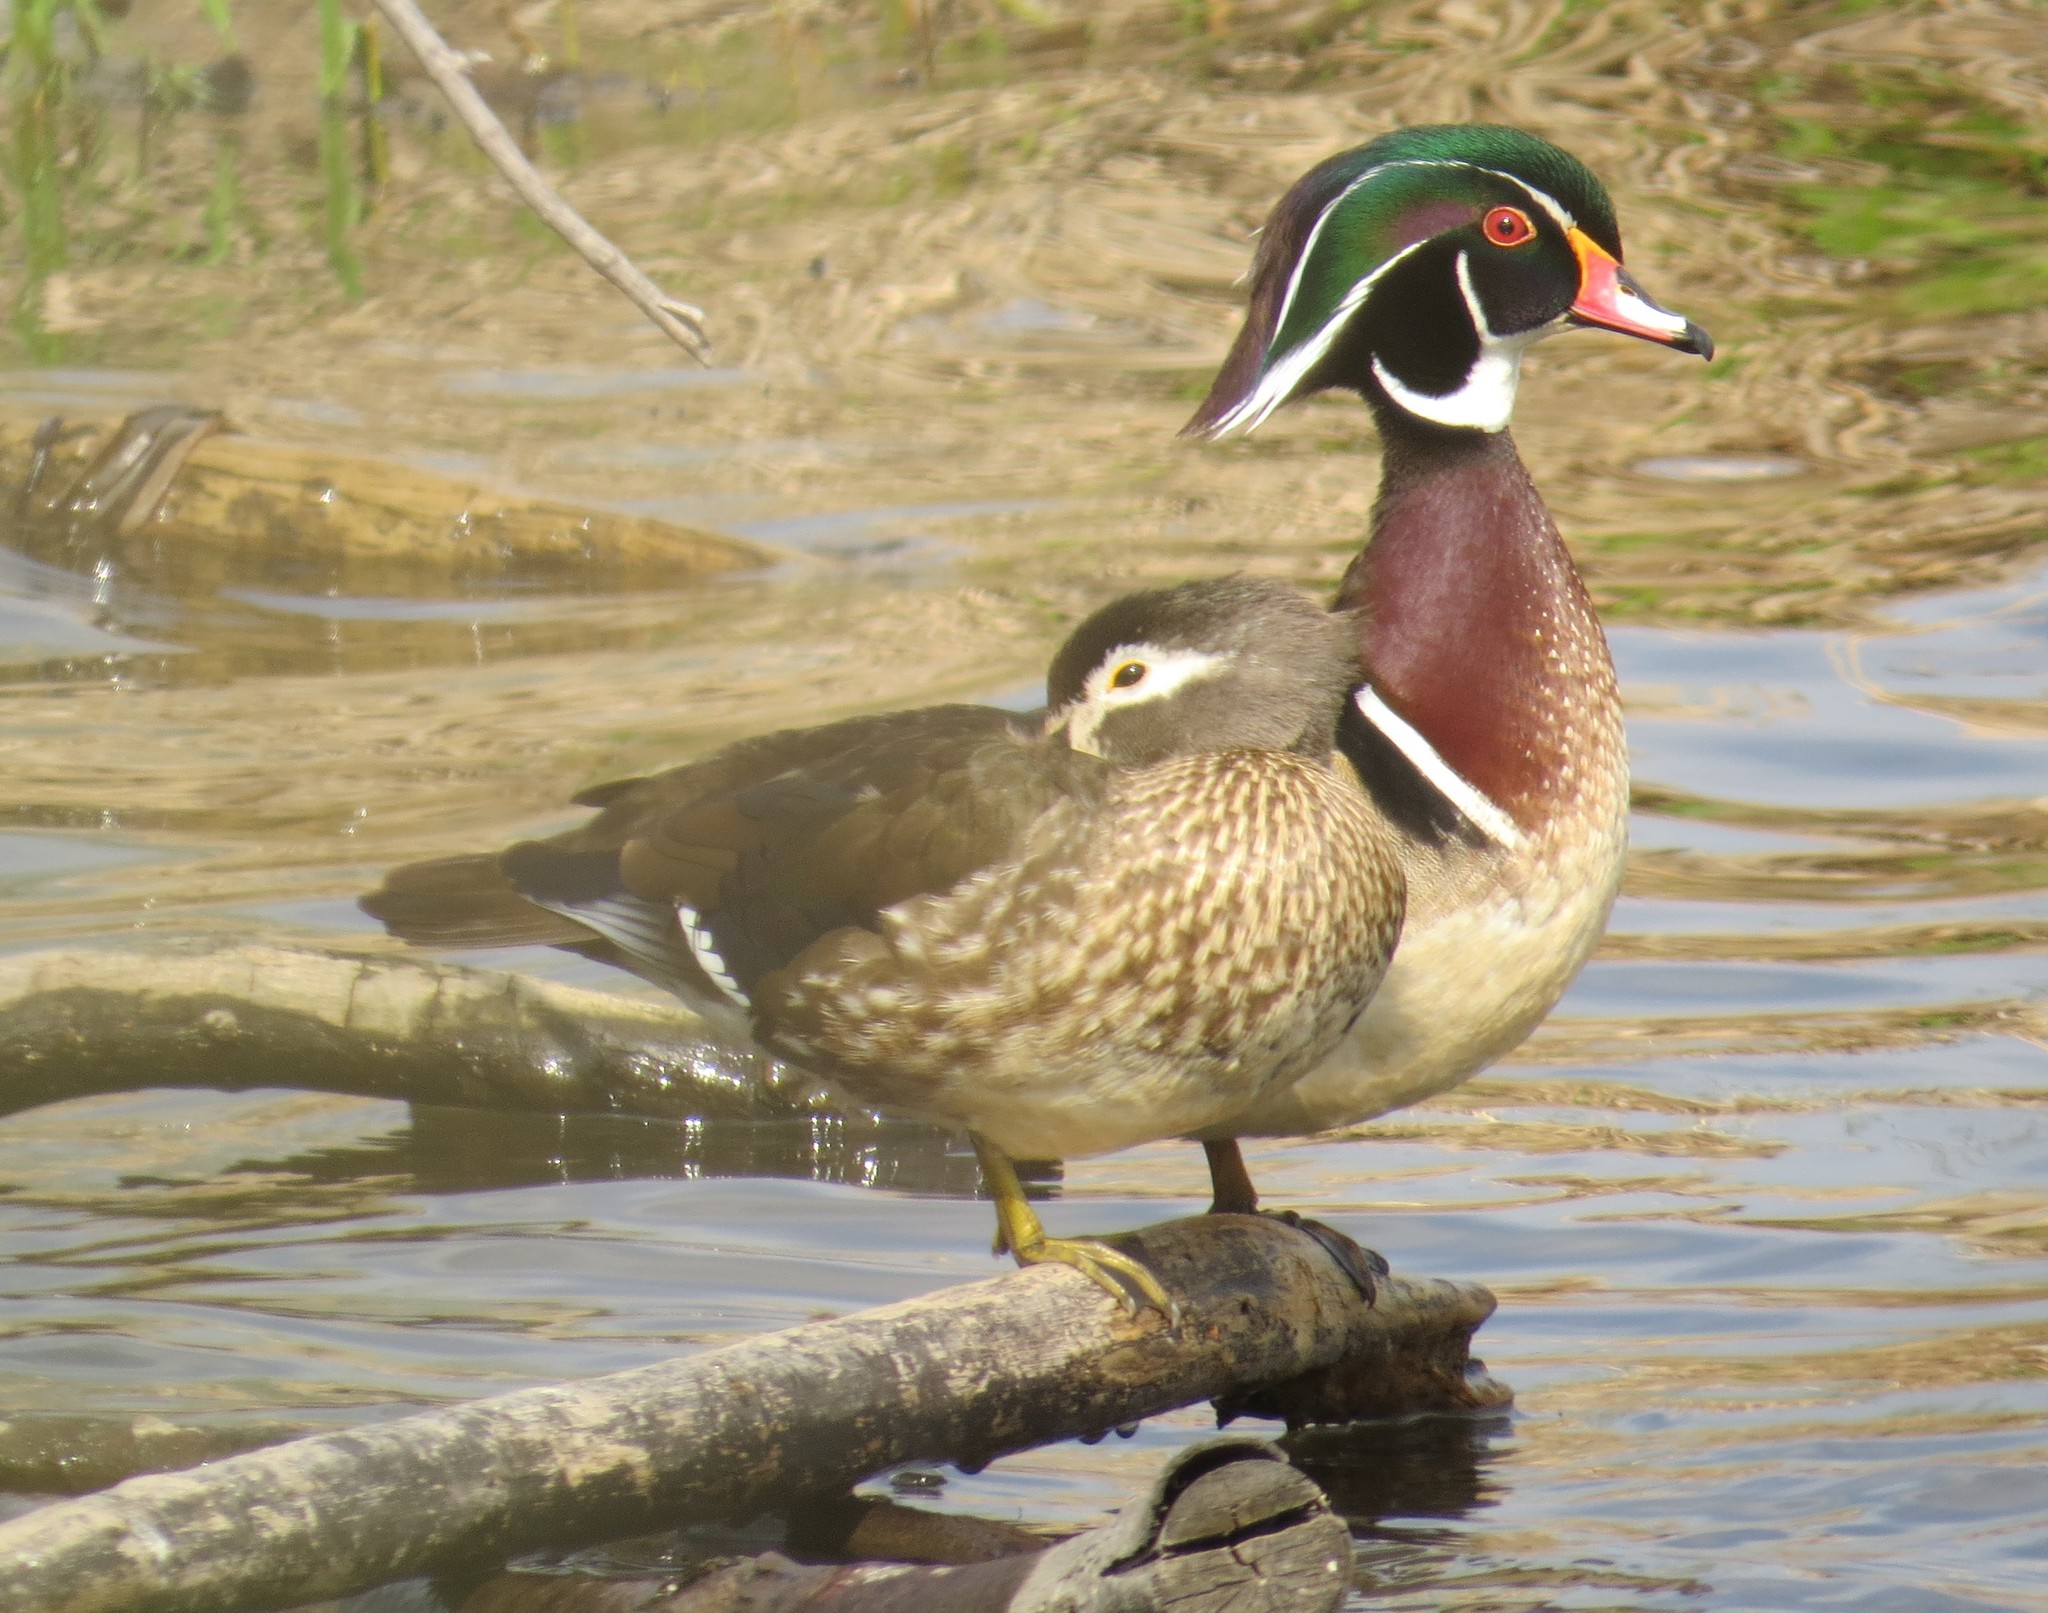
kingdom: Animalia
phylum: Chordata
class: Aves
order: Anseriformes
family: Anatidae
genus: Aix
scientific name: Aix sponsa
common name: Wood duck
